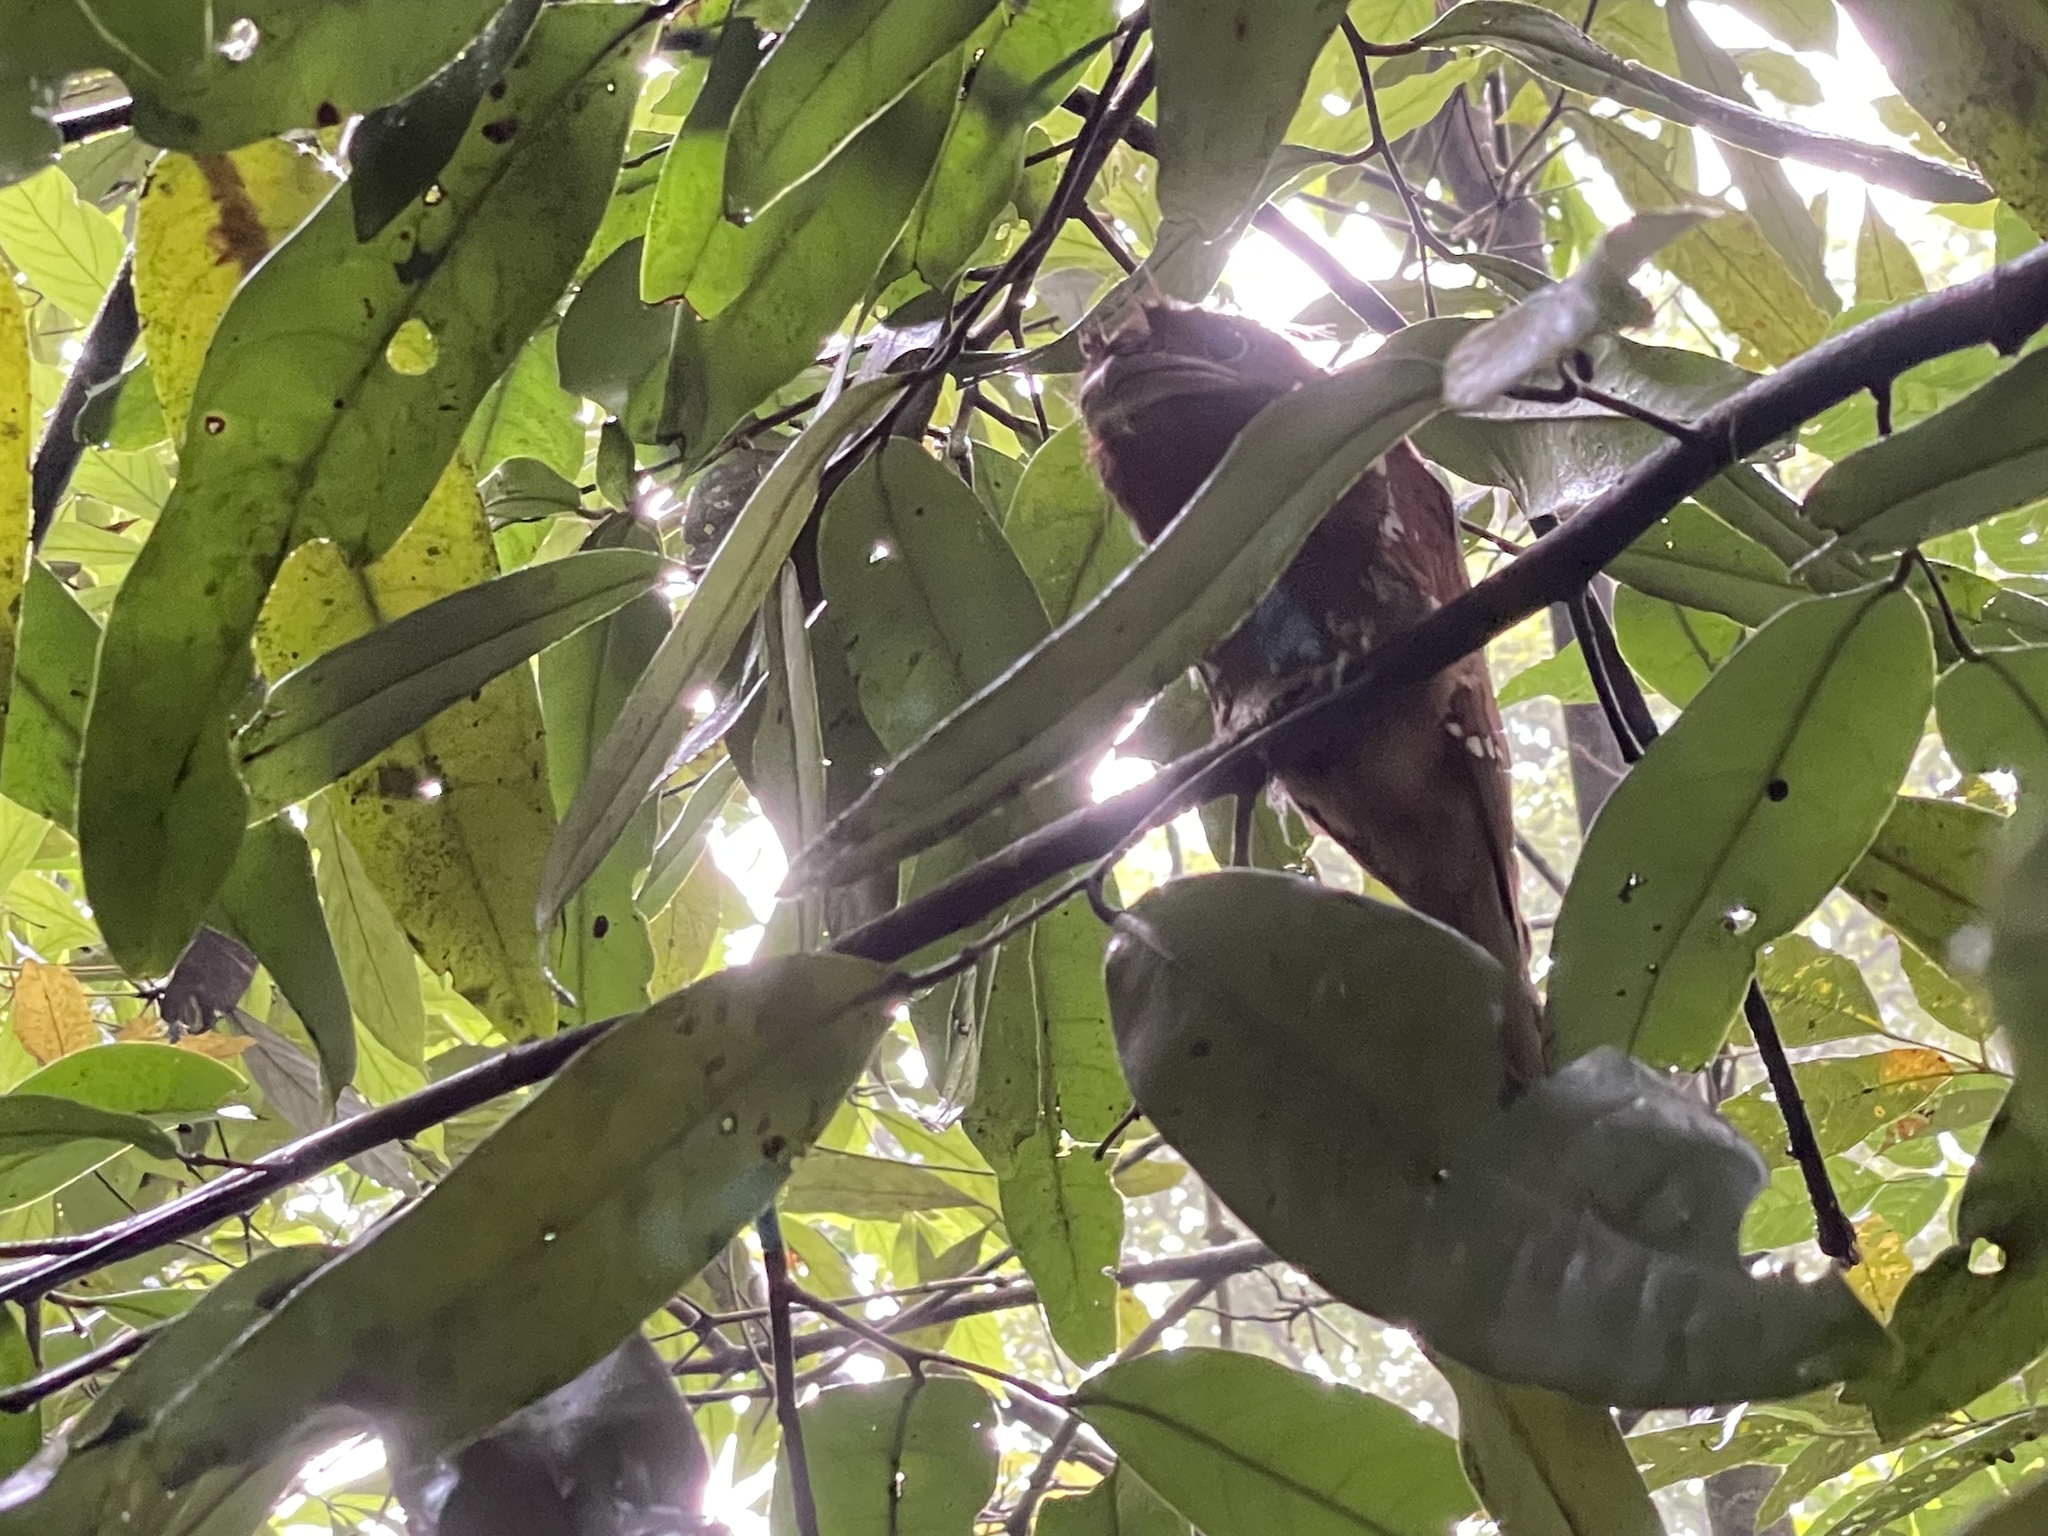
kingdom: Animalia
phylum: Chordata
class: Aves
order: Caprimulgiformes
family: Podargidae
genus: Batrachostomus
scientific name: Batrachostomus moniliger
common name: Sri lanka frogmouth
